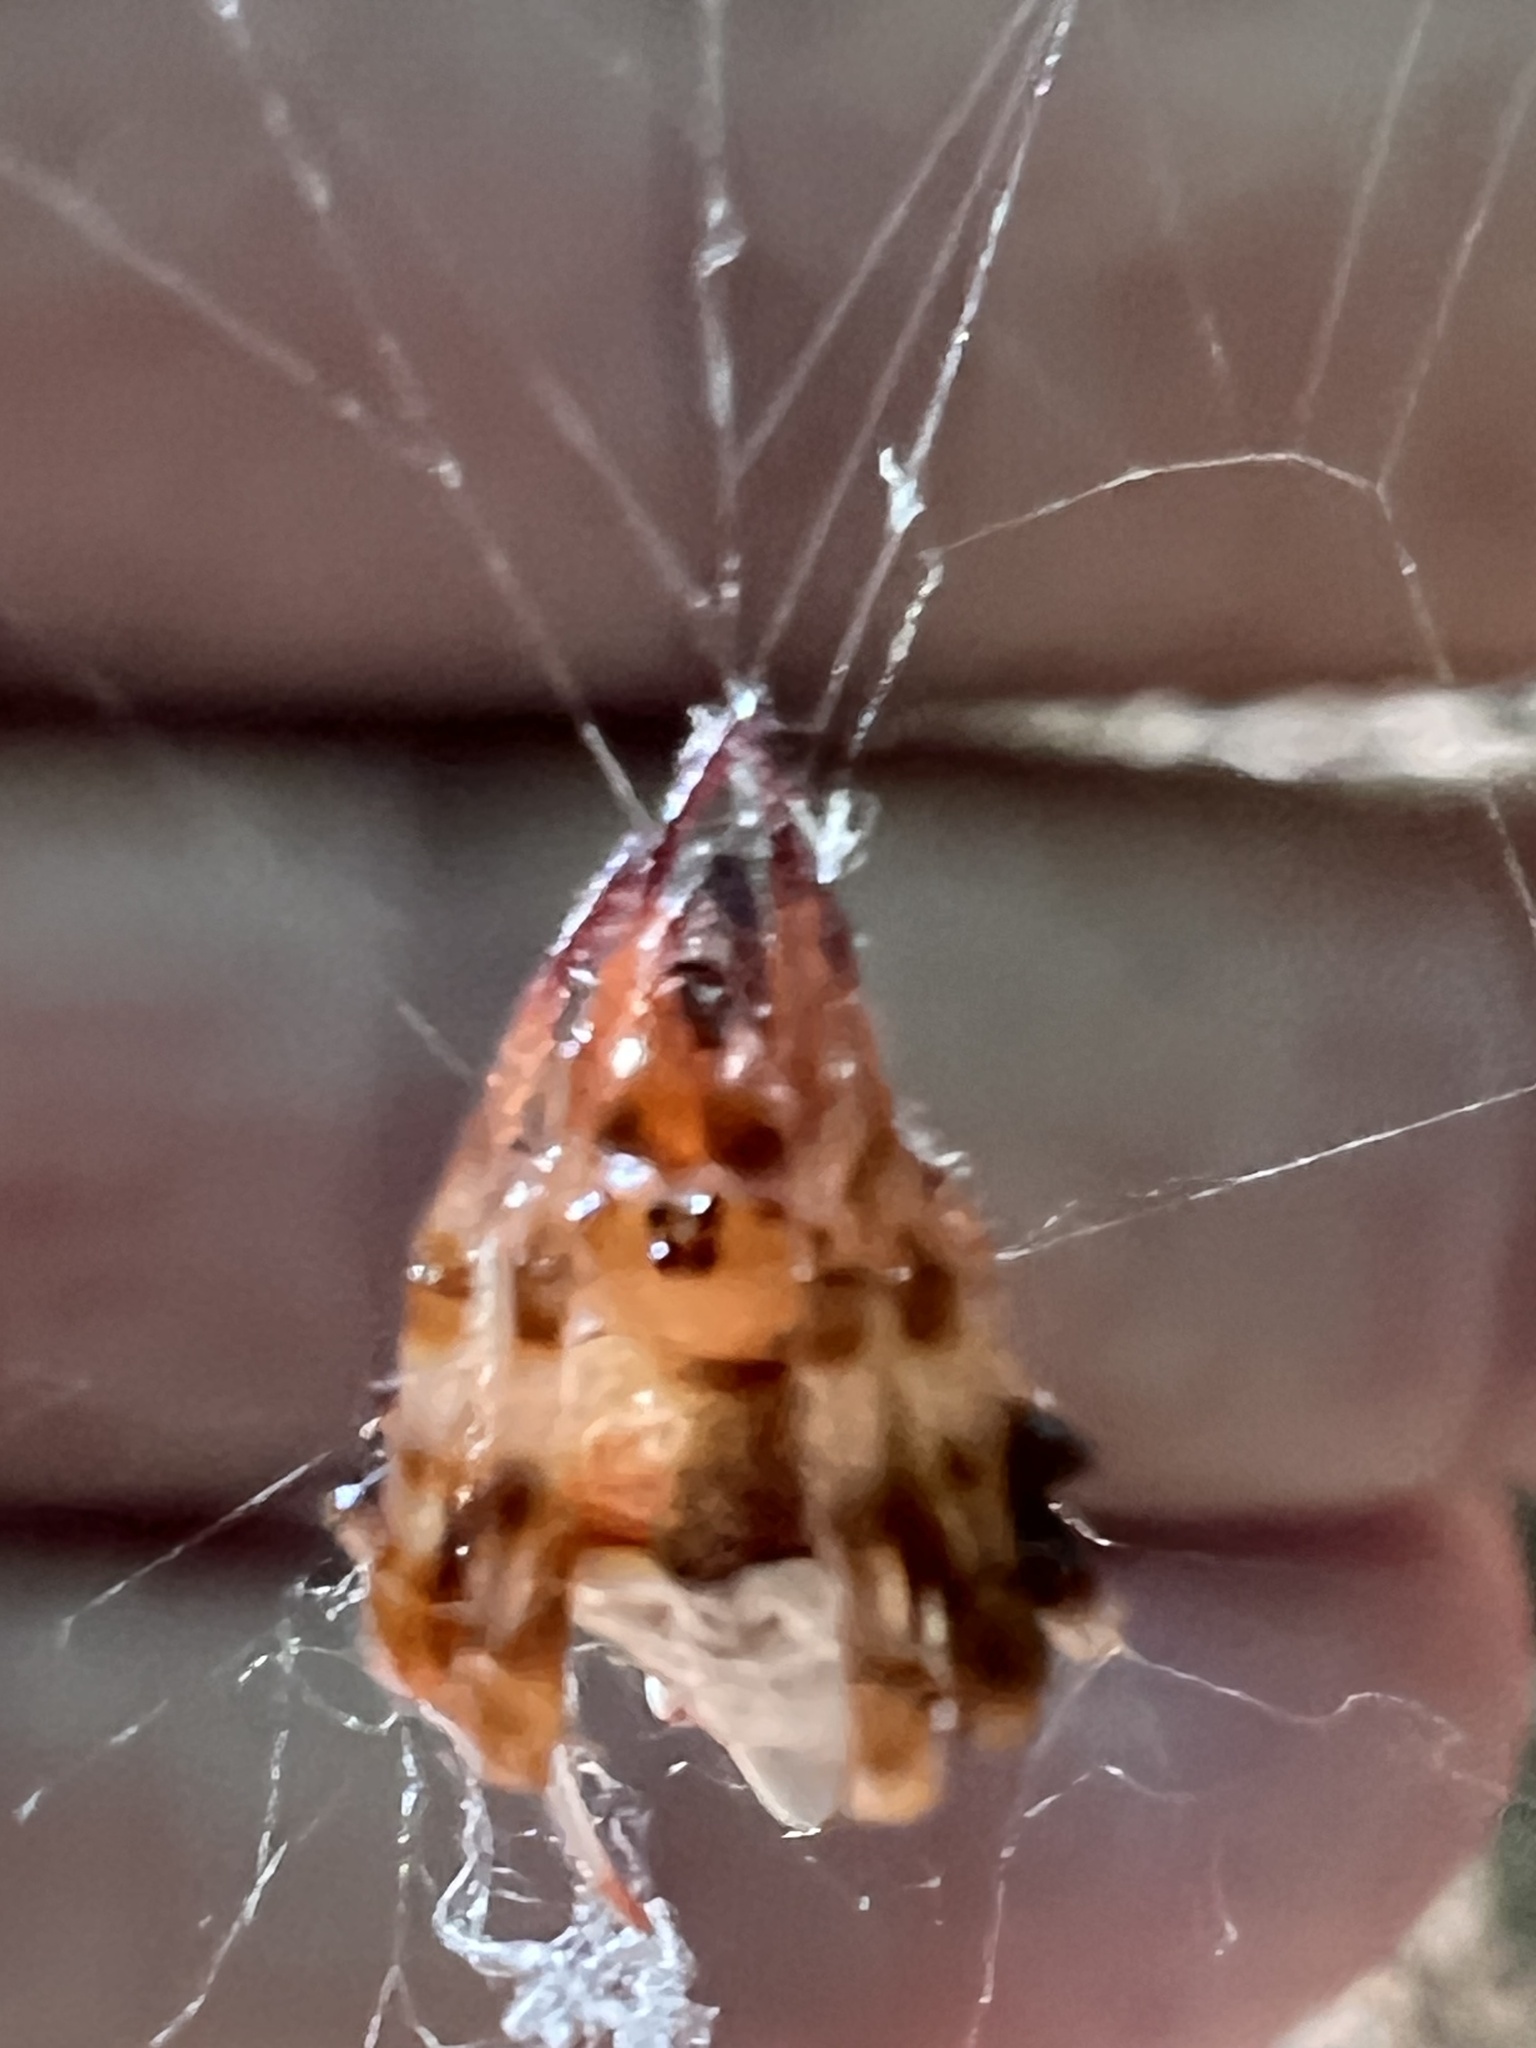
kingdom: Animalia
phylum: Arthropoda
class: Arachnida
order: Araneae
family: Araneidae
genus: Verrucosa
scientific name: Verrucosa arenata
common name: Orb weavers
